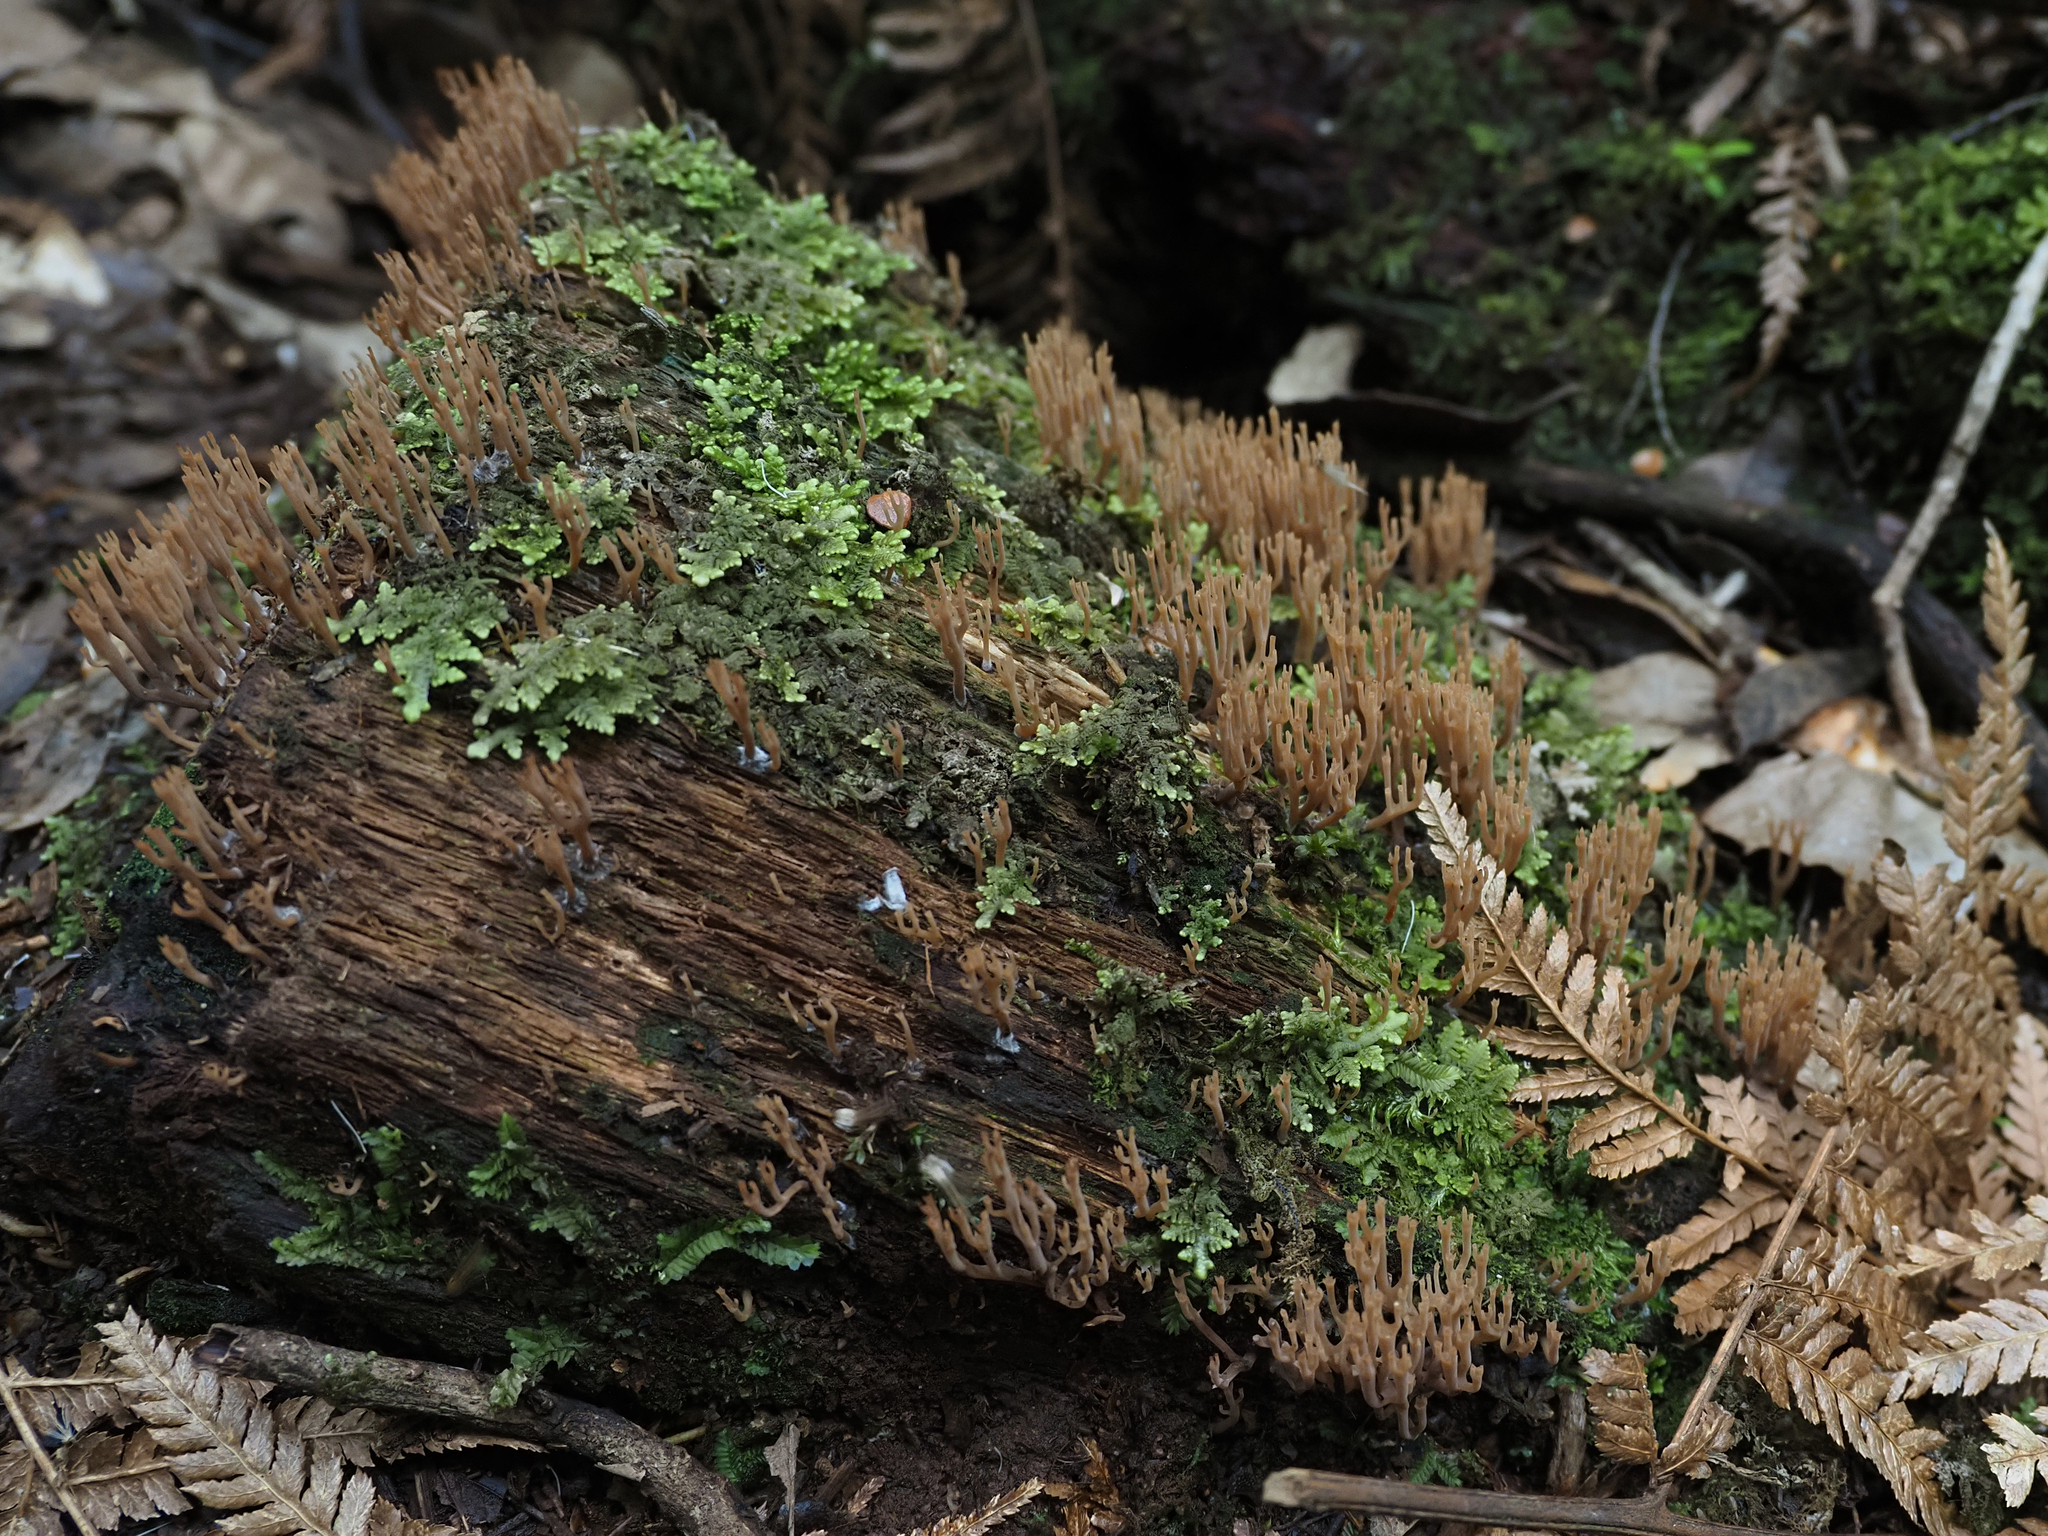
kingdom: Fungi
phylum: Basidiomycota
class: Agaricomycetes
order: Russulales
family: Auriscalpiaceae
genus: Artomyces
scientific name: Artomyces
